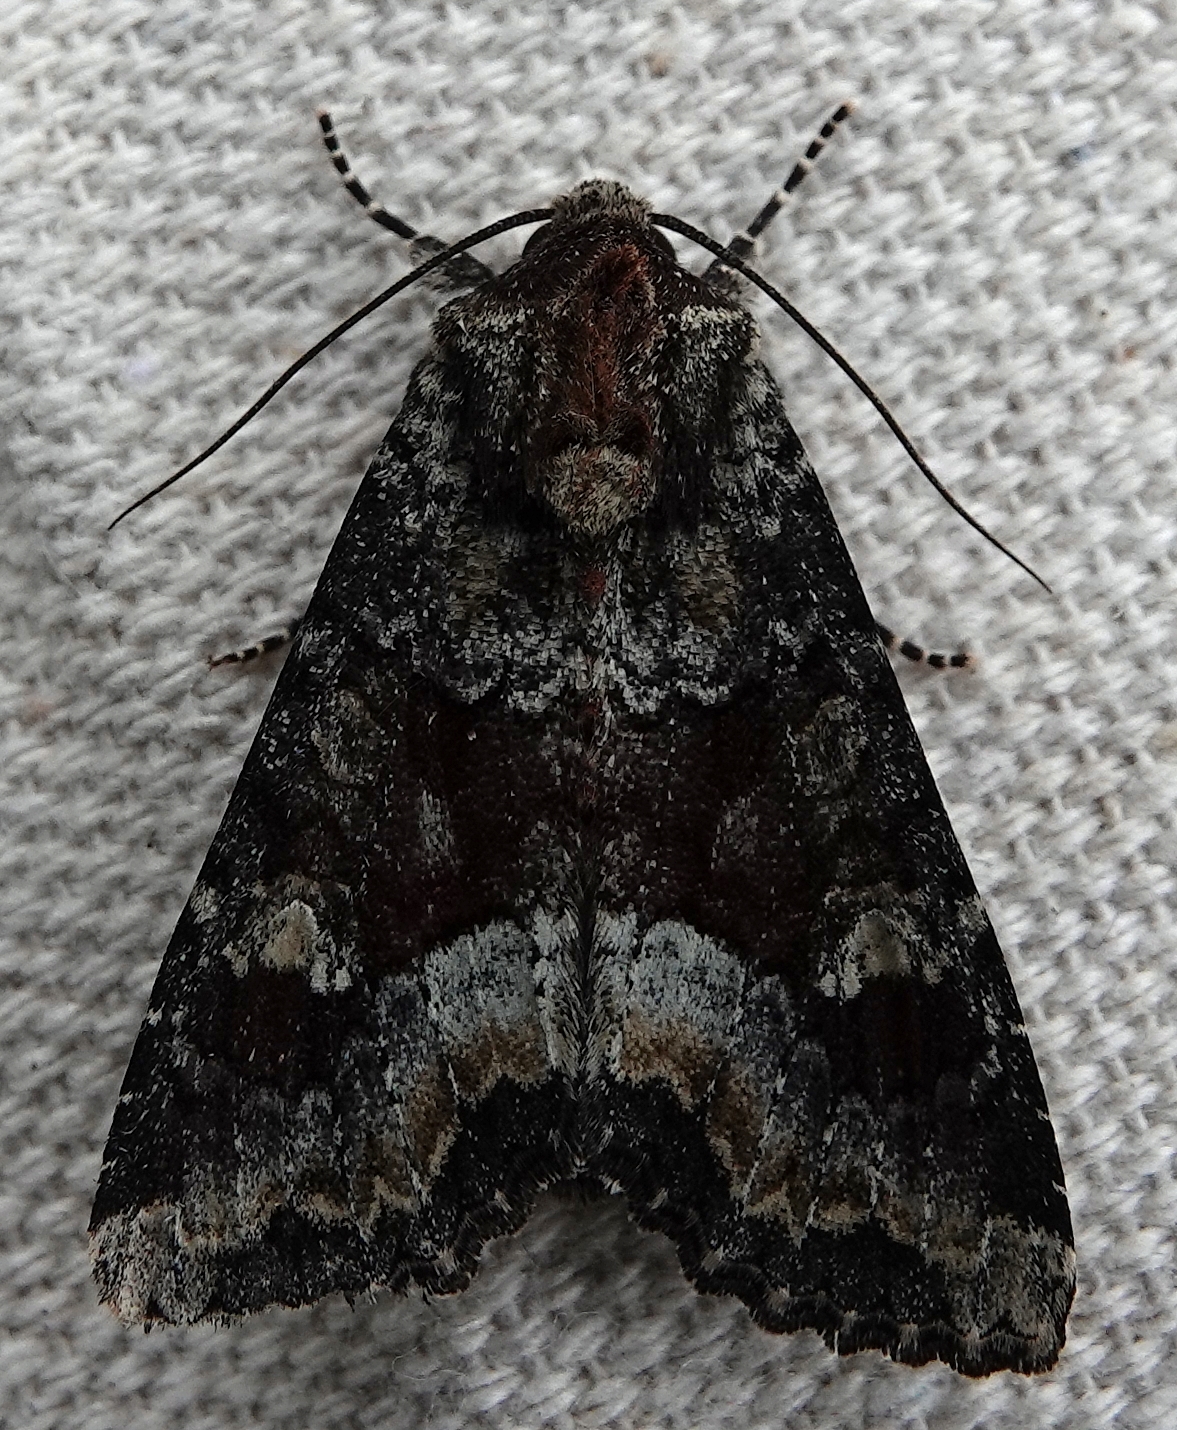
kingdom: Animalia
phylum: Arthropoda
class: Insecta
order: Lepidoptera
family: Noctuidae
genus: Apamea
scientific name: Apamea amputatrix
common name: Yellow-headed cutworm moth
